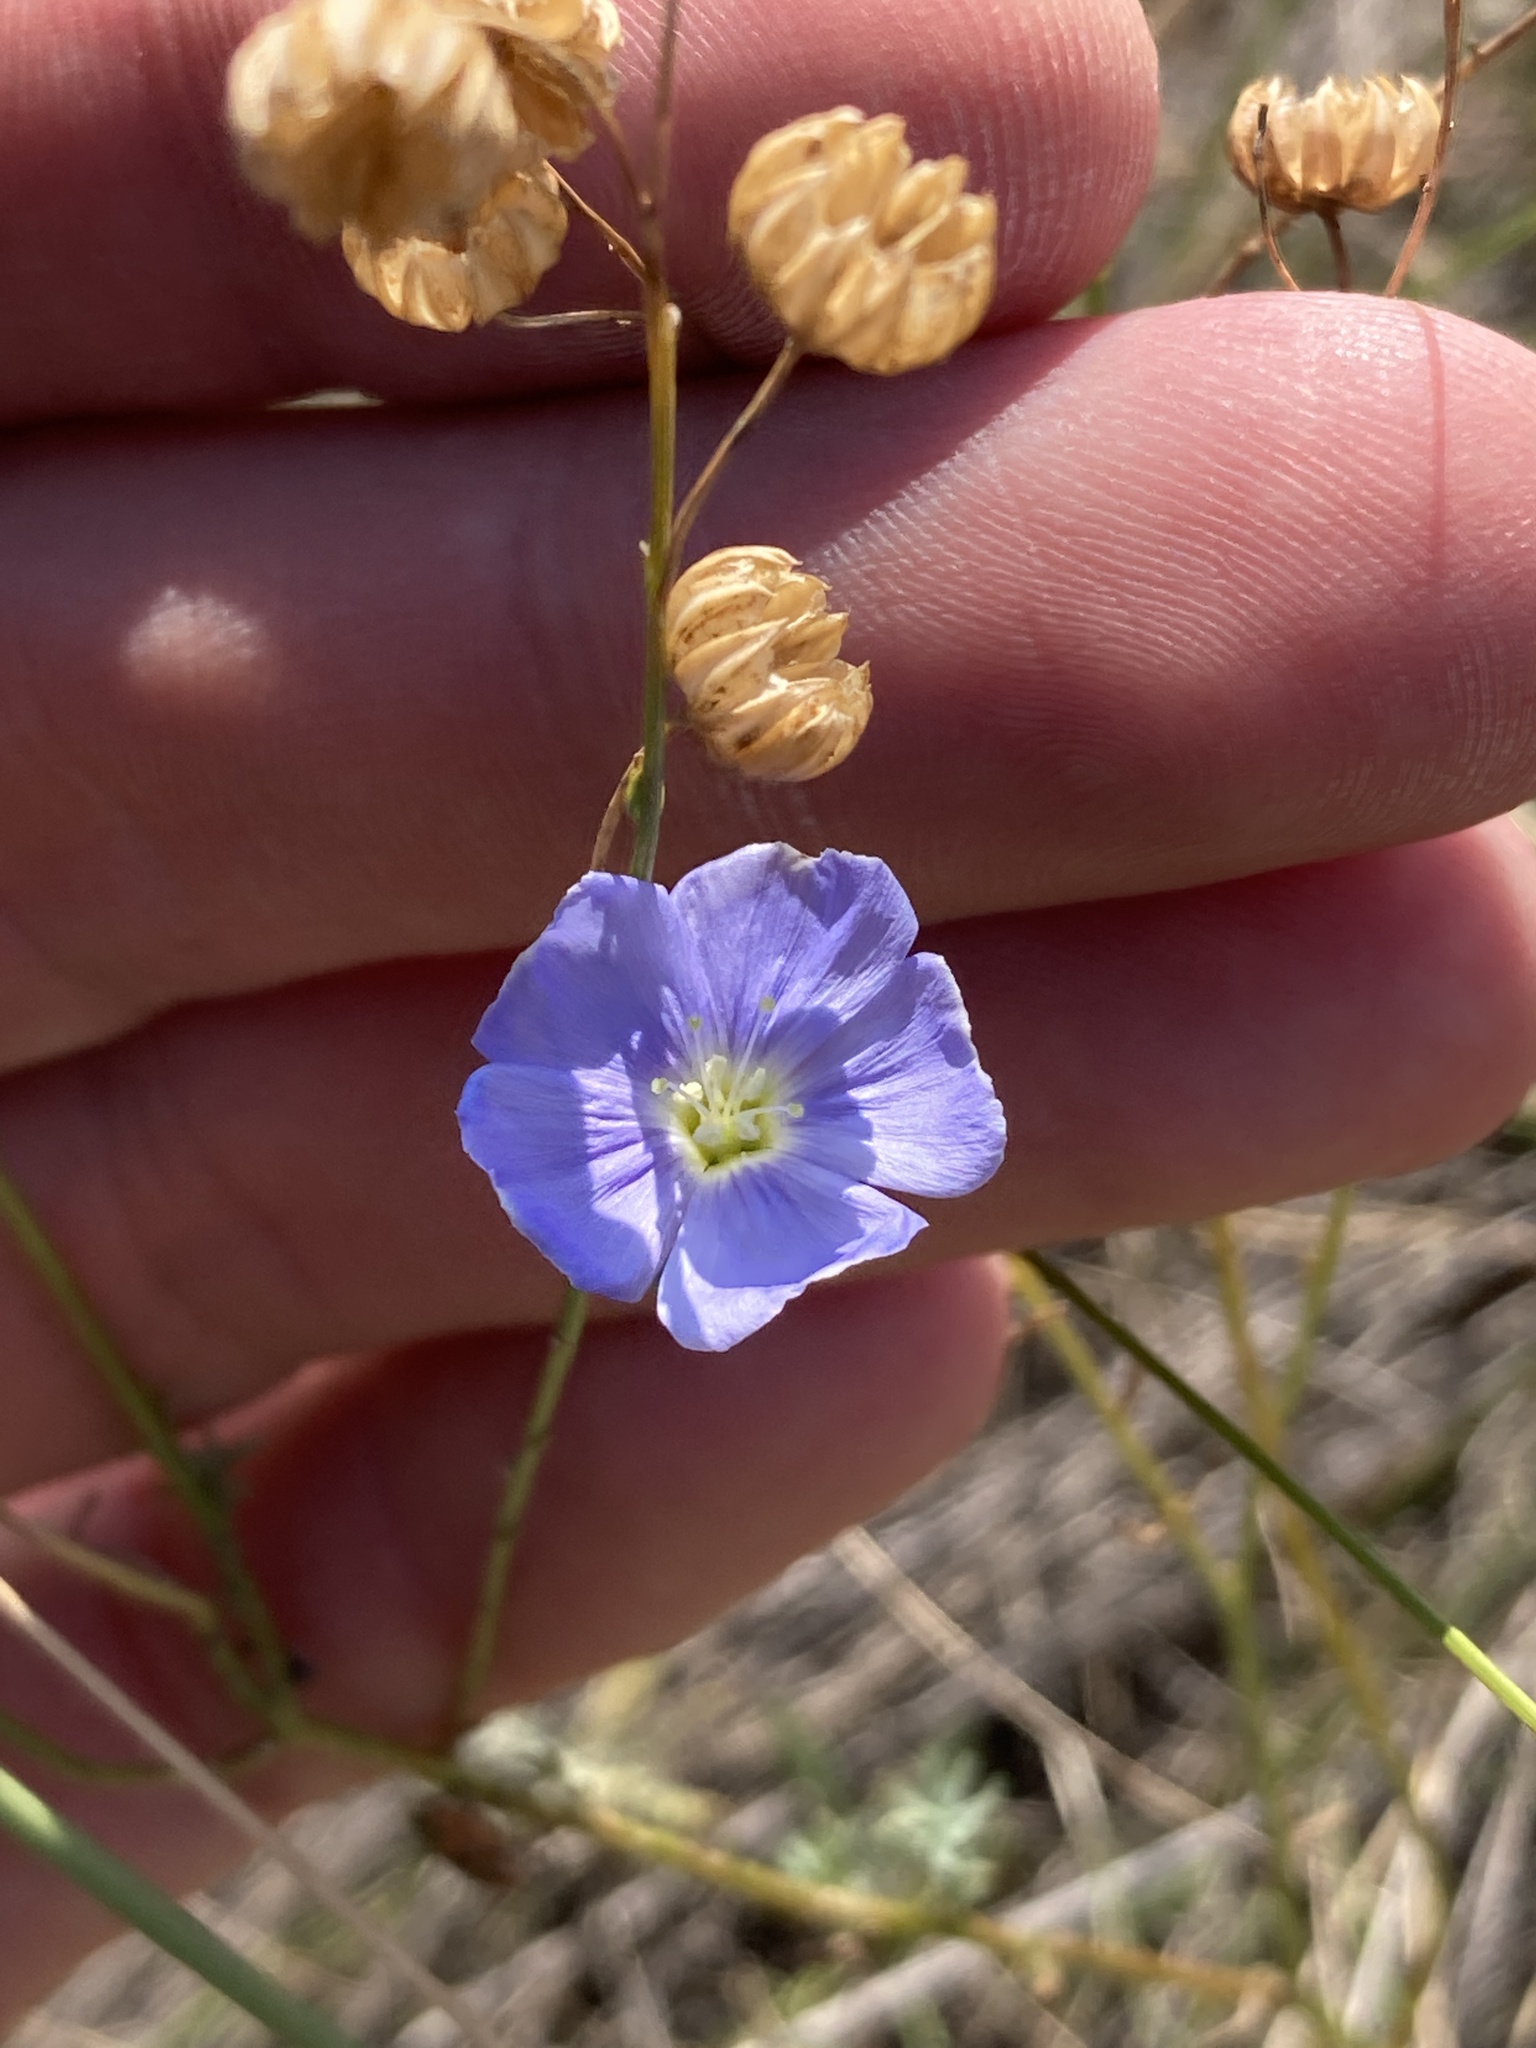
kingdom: Plantae
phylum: Tracheophyta
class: Magnoliopsida
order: Malpighiales
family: Linaceae
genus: Linum
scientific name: Linum usitatissimum
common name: Flax
